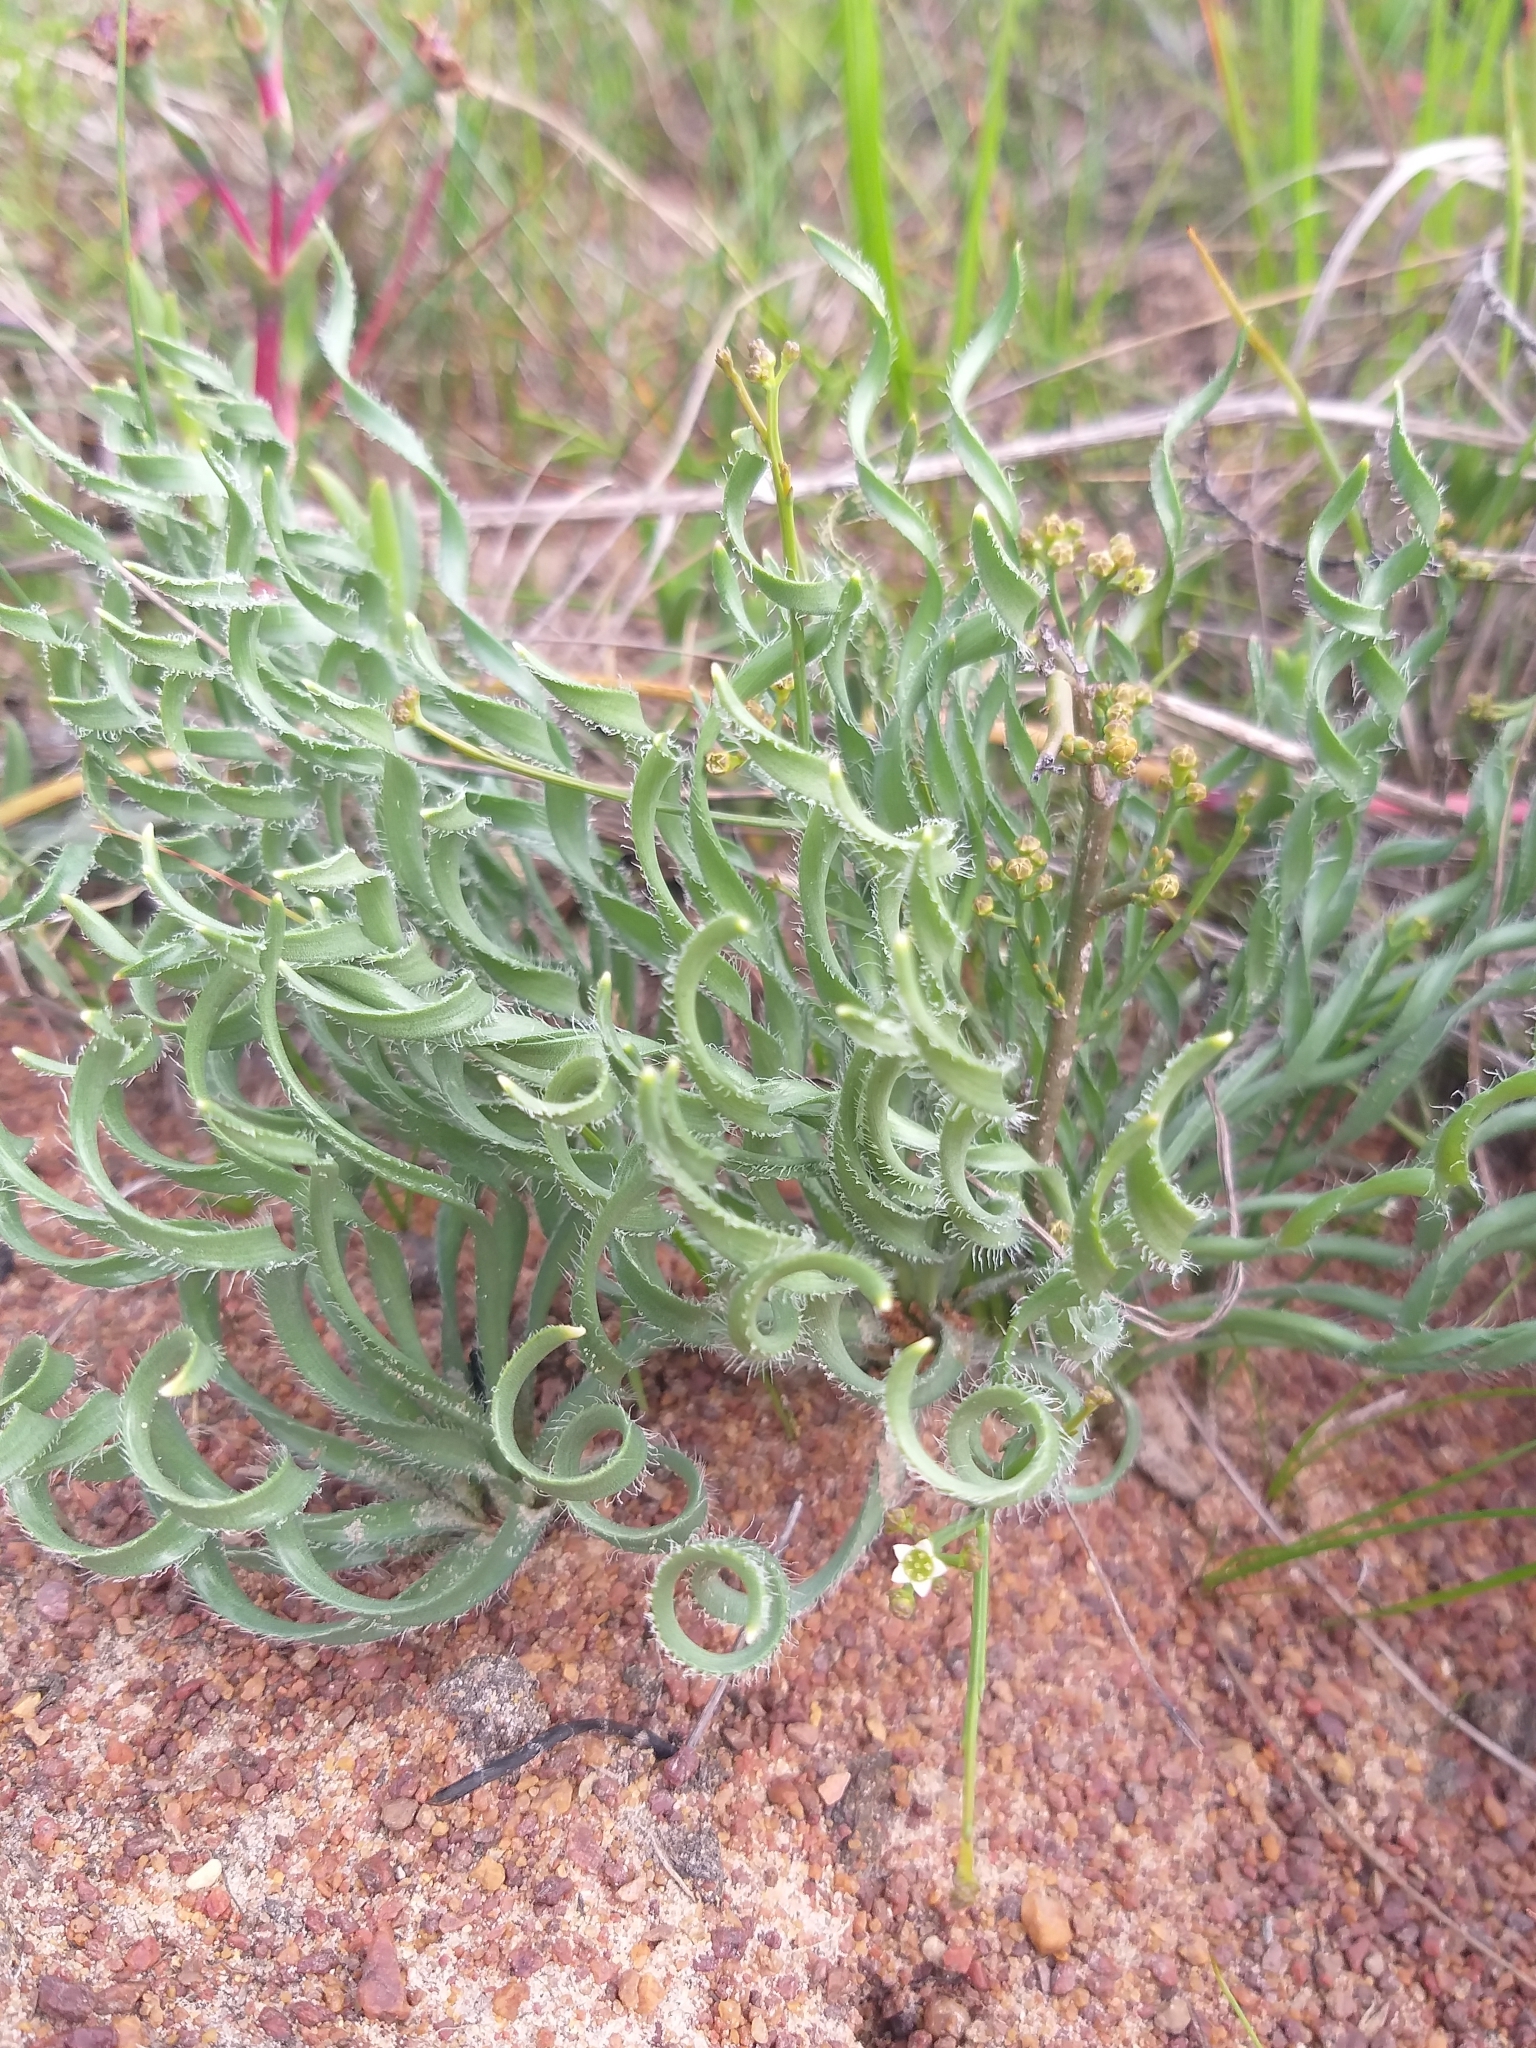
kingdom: Plantae
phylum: Tracheophyta
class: Liliopsida
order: Asparagales
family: Amaryllidaceae
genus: Gethyllis
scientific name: Gethyllis ciliaris
